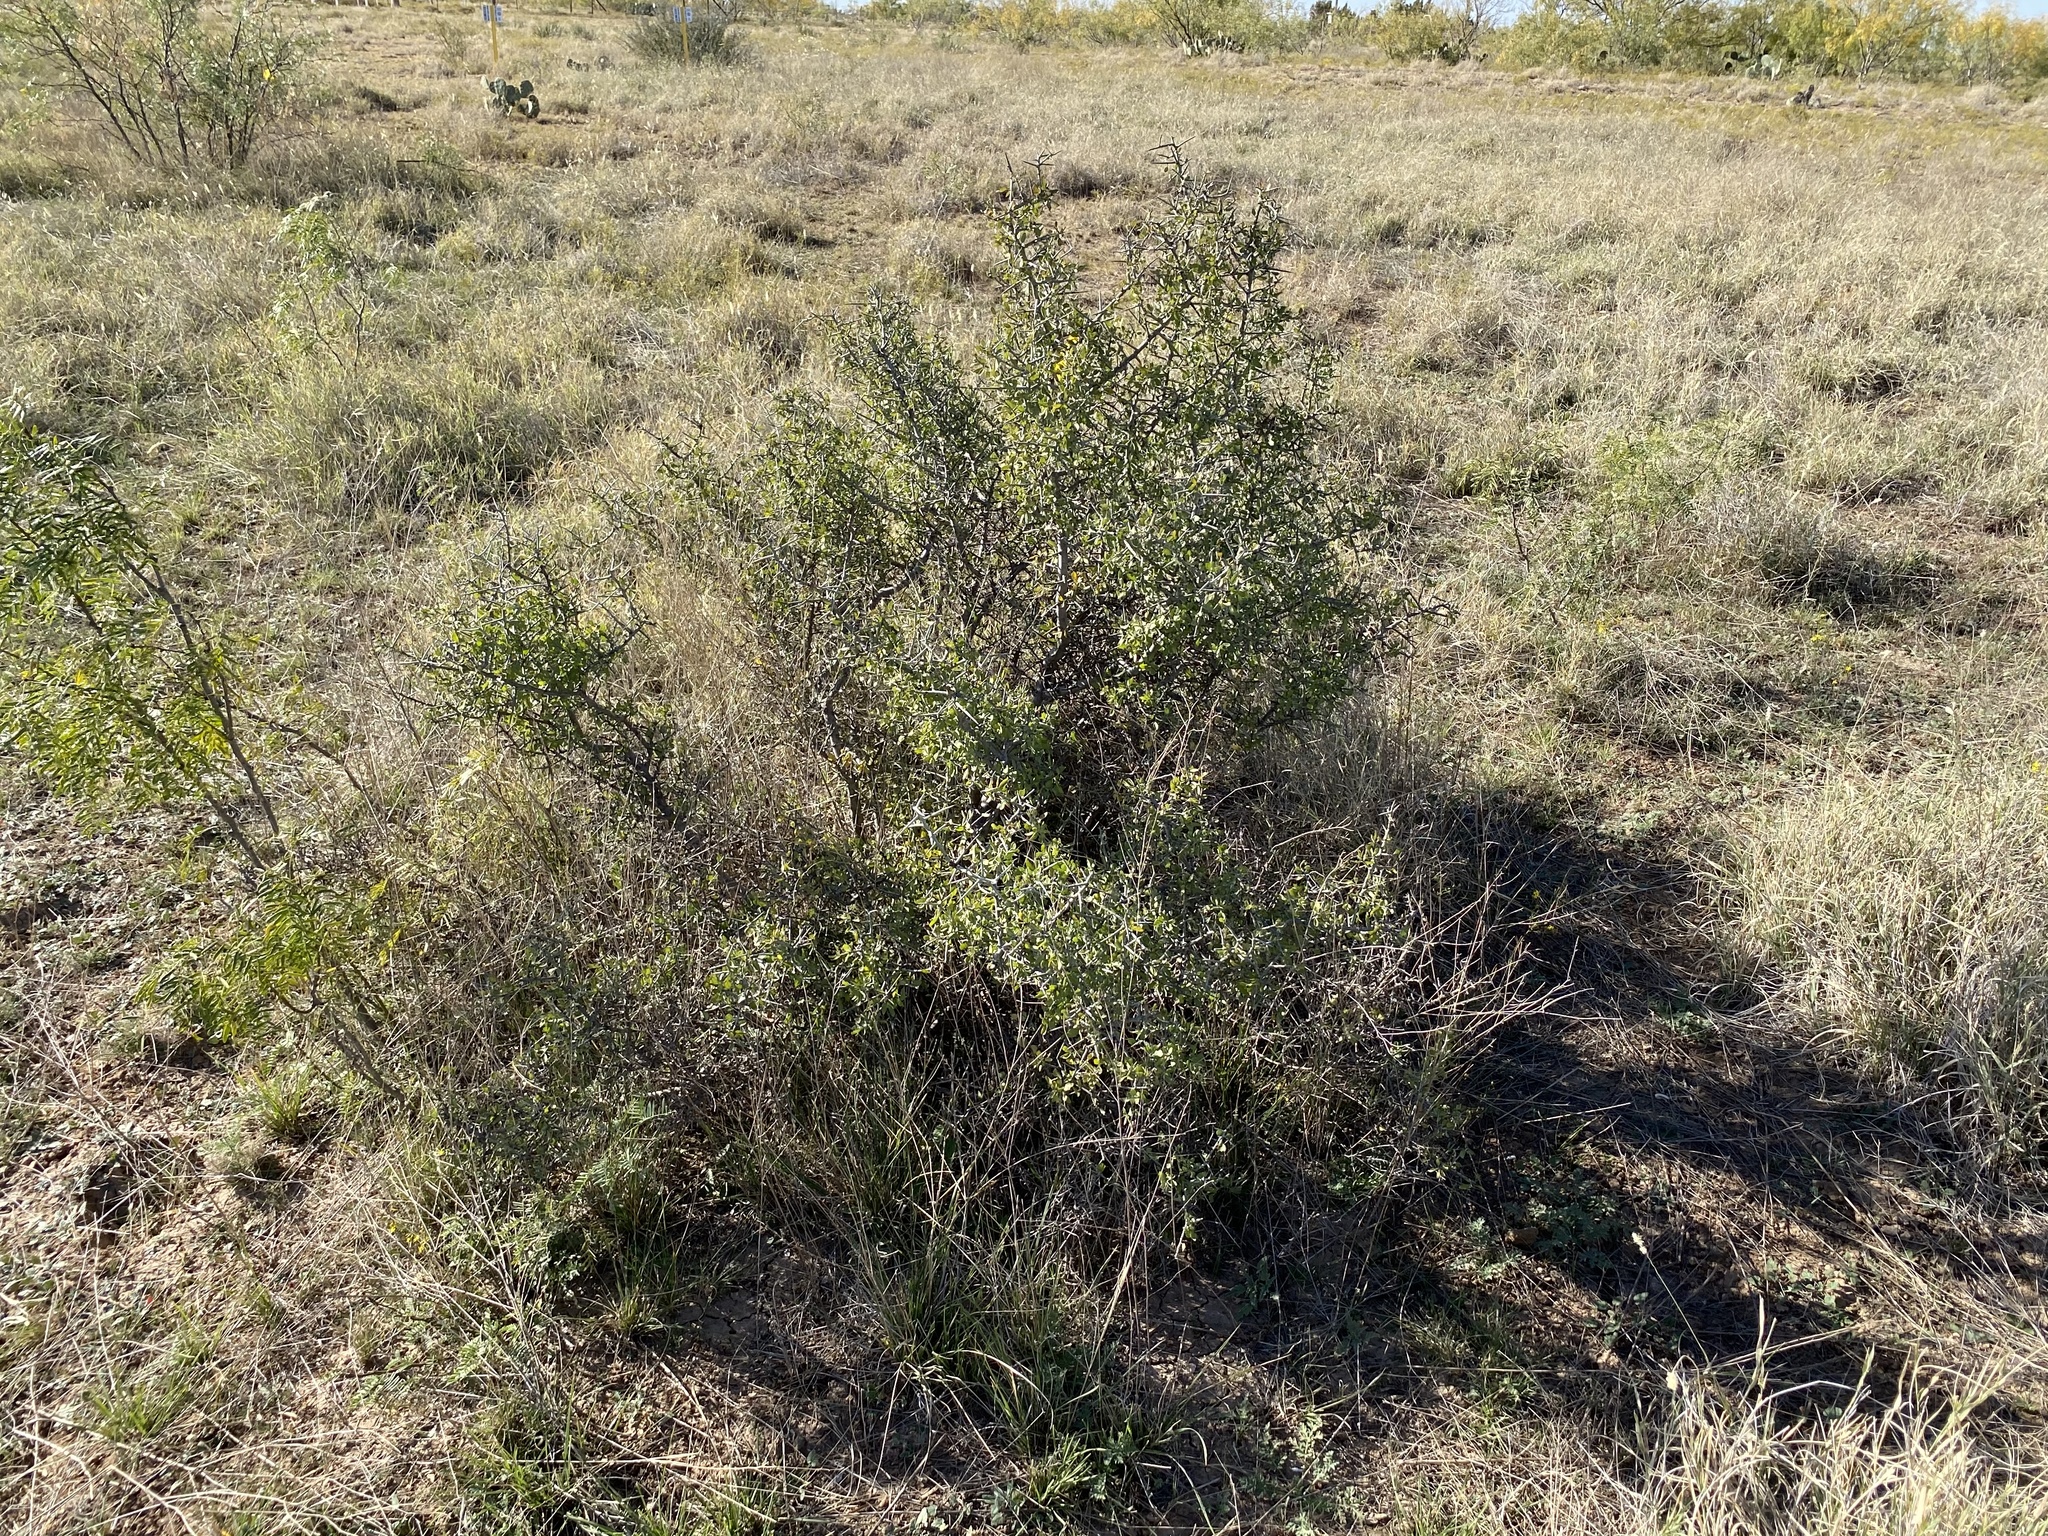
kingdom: Plantae
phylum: Tracheophyta
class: Magnoliopsida
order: Rosales
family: Rhamnaceae
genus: Sarcomphalus
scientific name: Sarcomphalus obtusifolius
